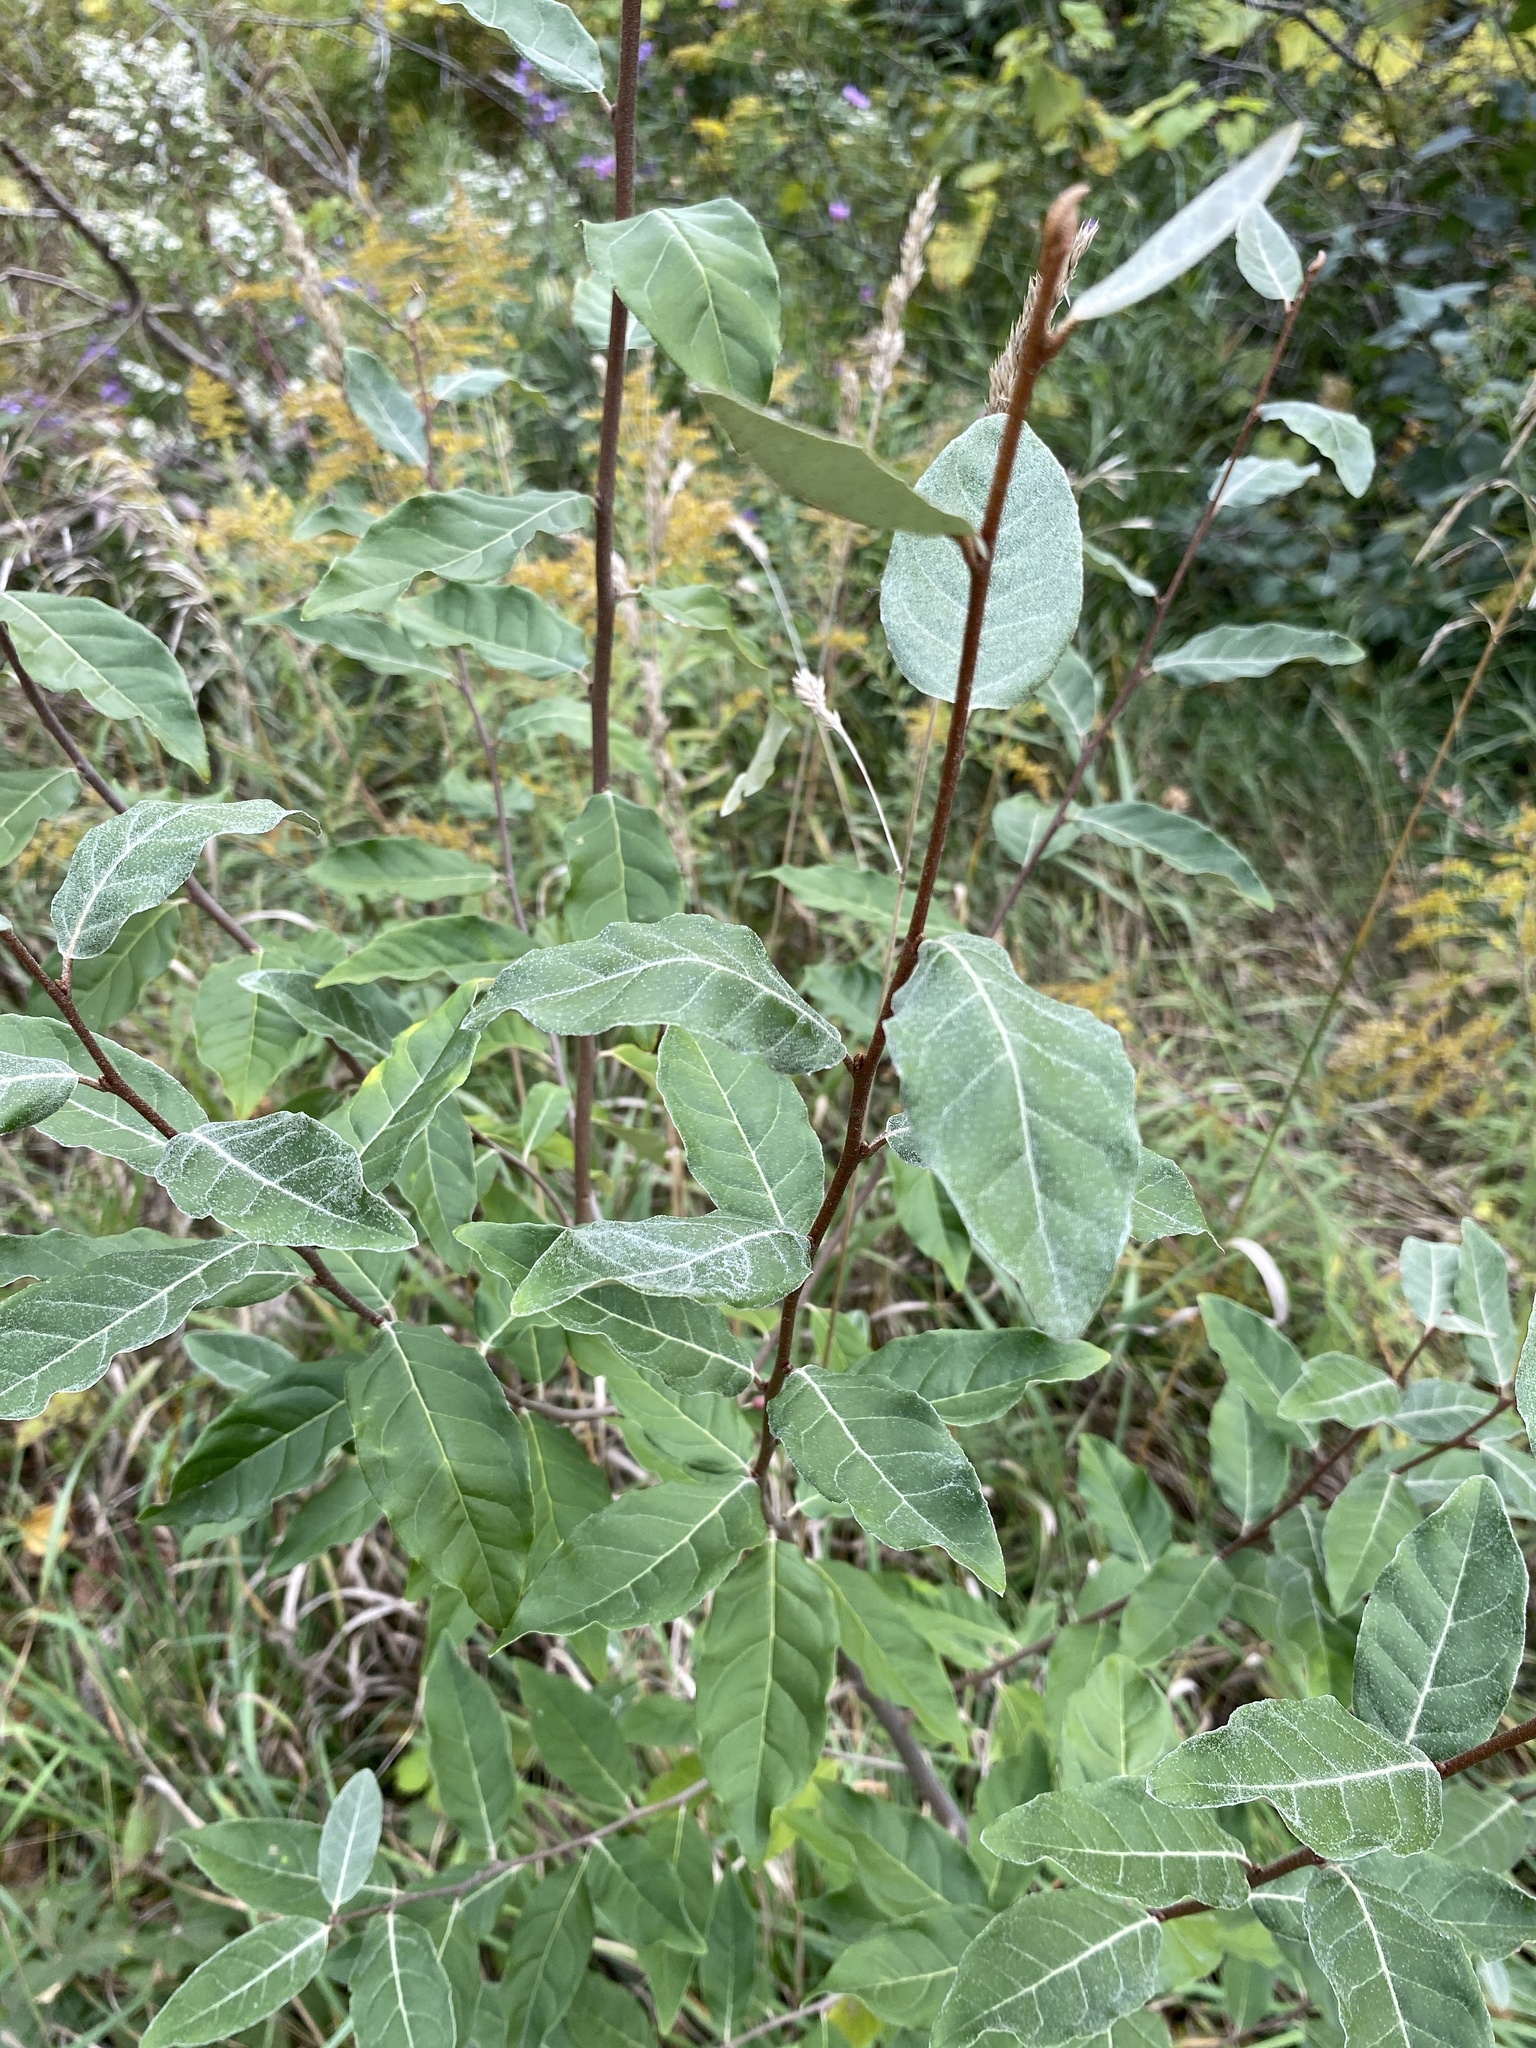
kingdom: Plantae
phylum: Tracheophyta
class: Magnoliopsida
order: Rosales
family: Elaeagnaceae
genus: Elaeagnus
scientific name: Elaeagnus umbellata
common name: Autumn olive
